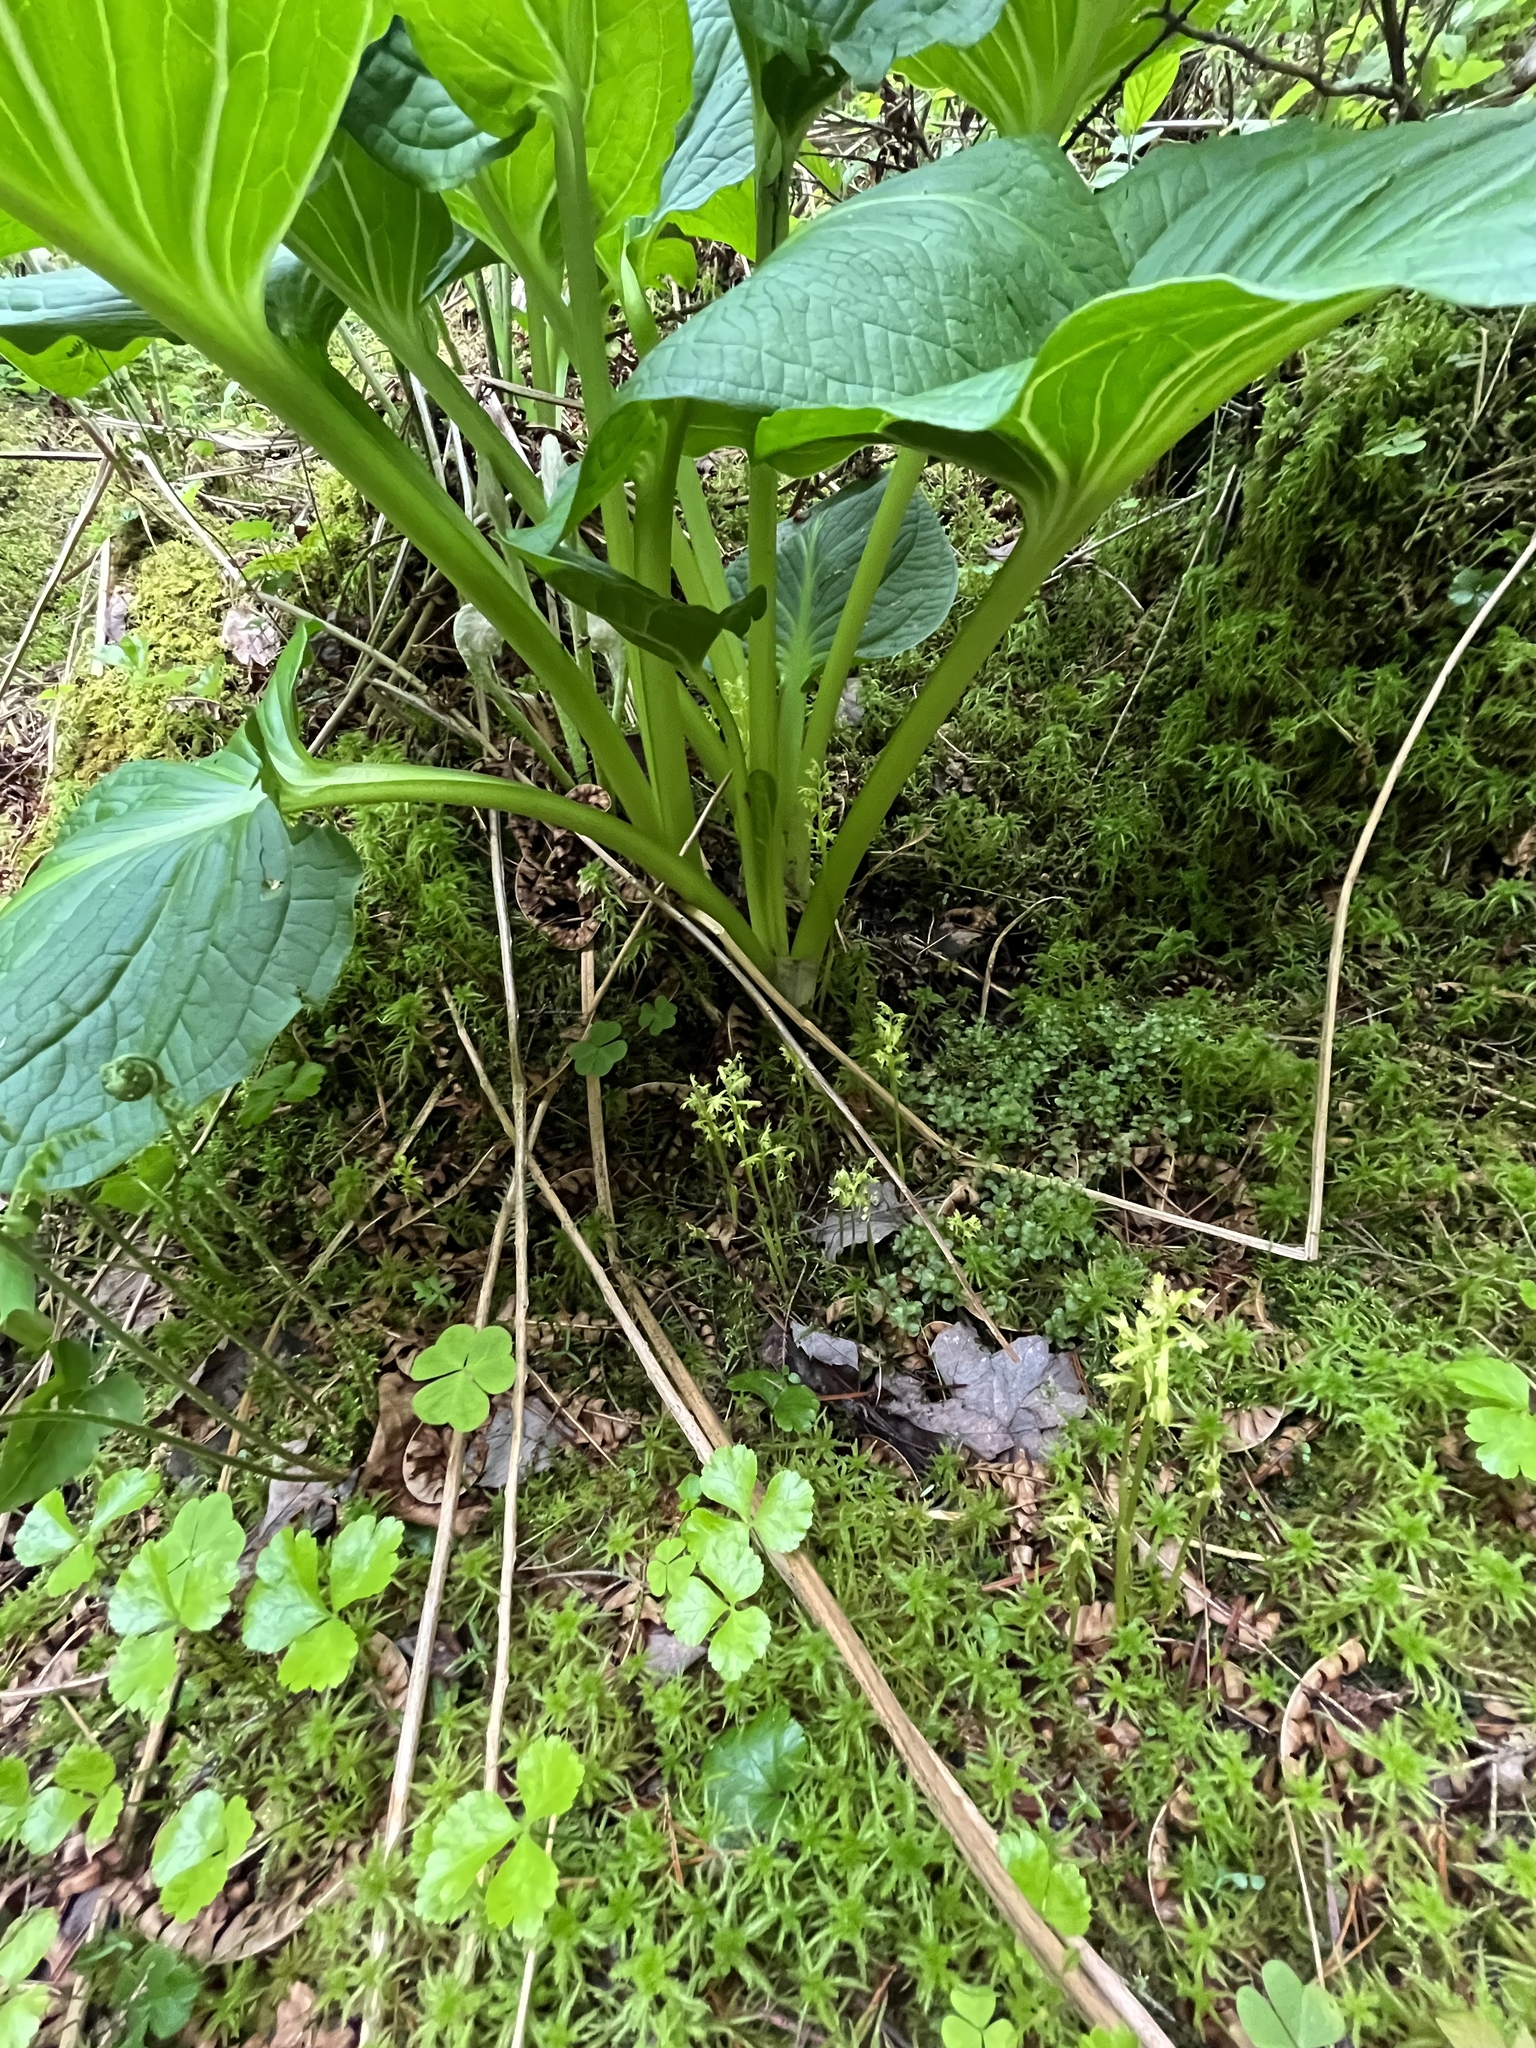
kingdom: Plantae
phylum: Tracheophyta
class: Liliopsida
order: Asparagales
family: Orchidaceae
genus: Corallorhiza
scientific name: Corallorhiza trifida
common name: Yellow coralroot
